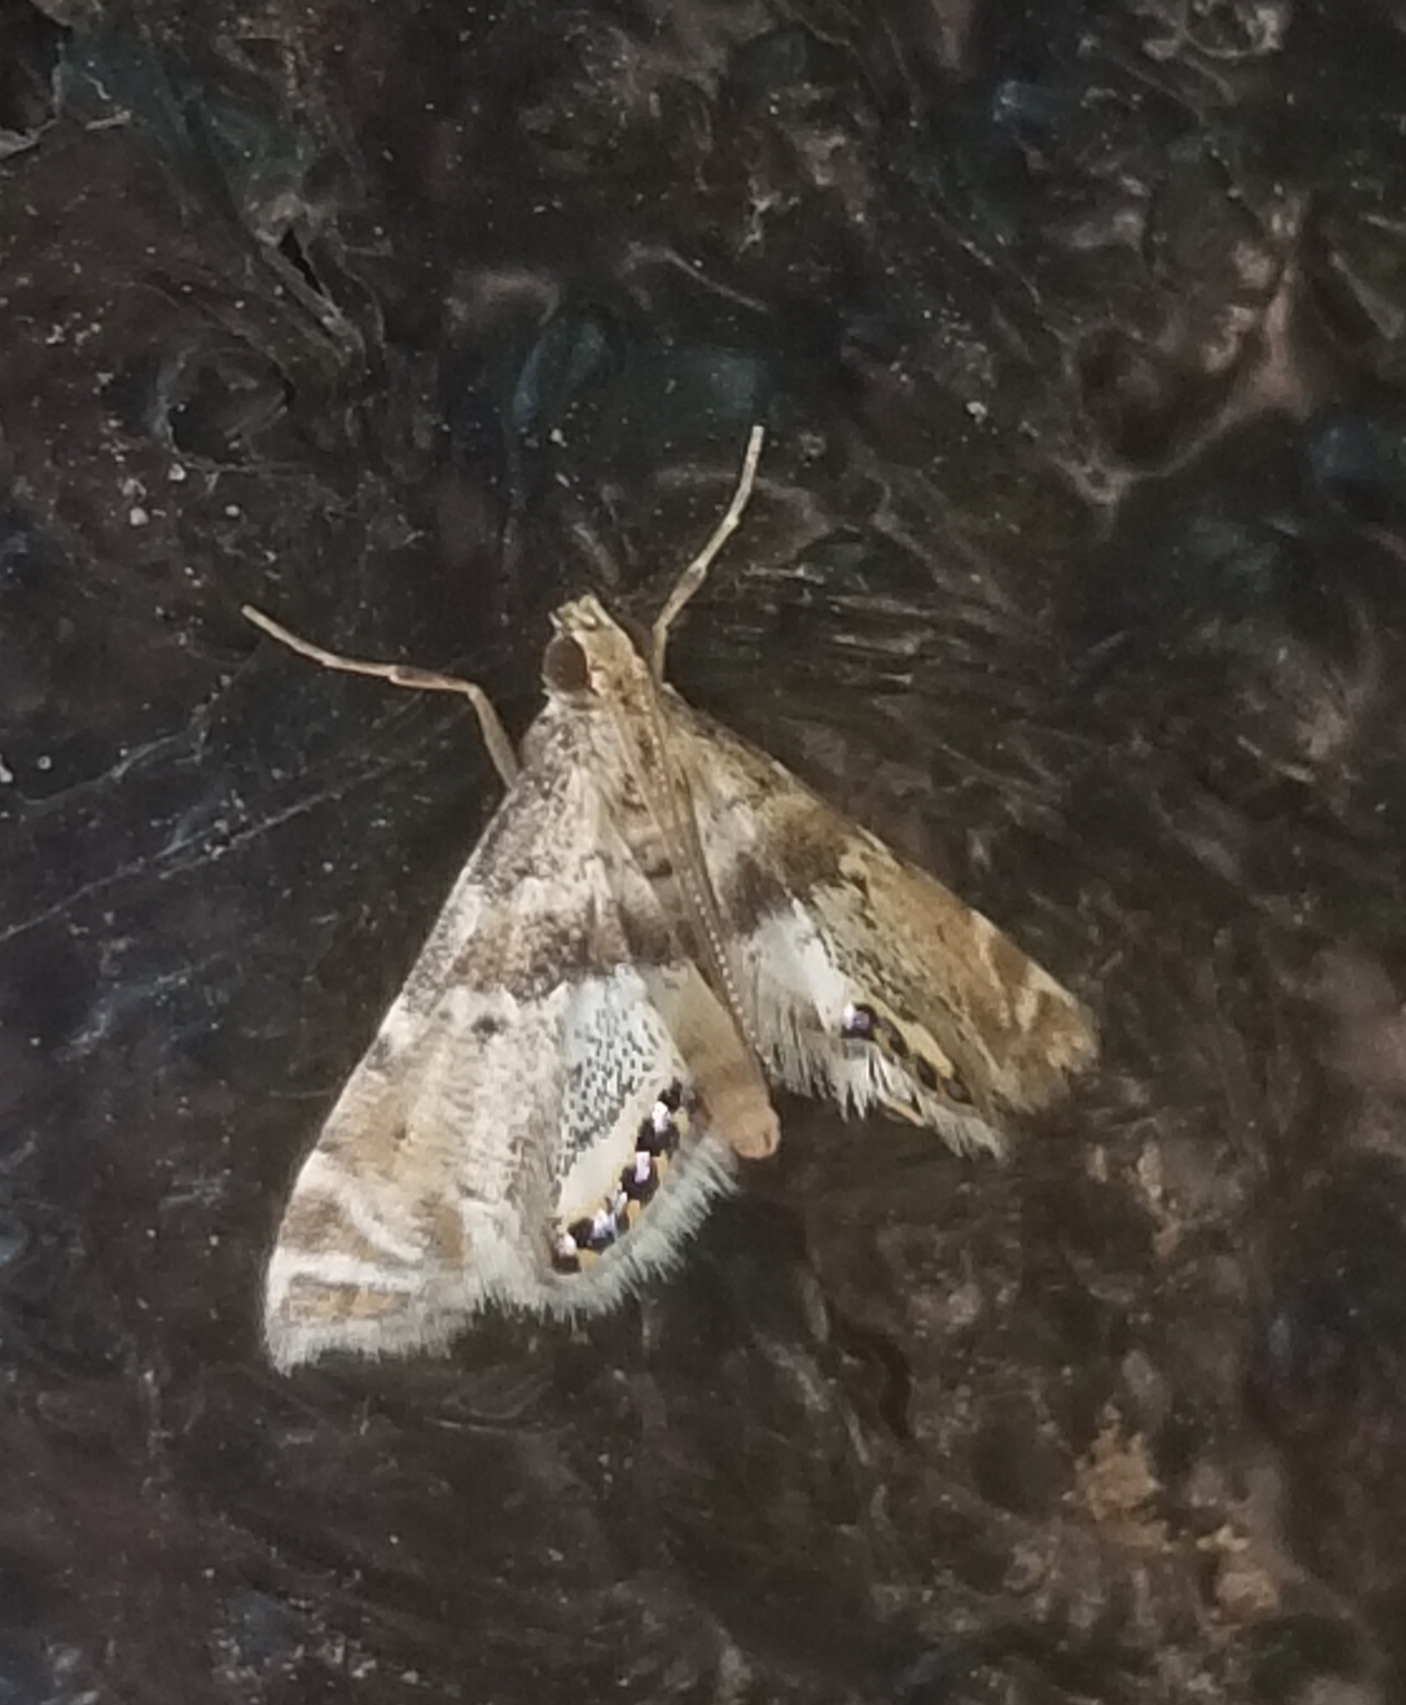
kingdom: Animalia
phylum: Arthropoda
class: Insecta
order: Lepidoptera
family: Crambidae
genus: Petrophila
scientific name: Petrophila fulicalis
